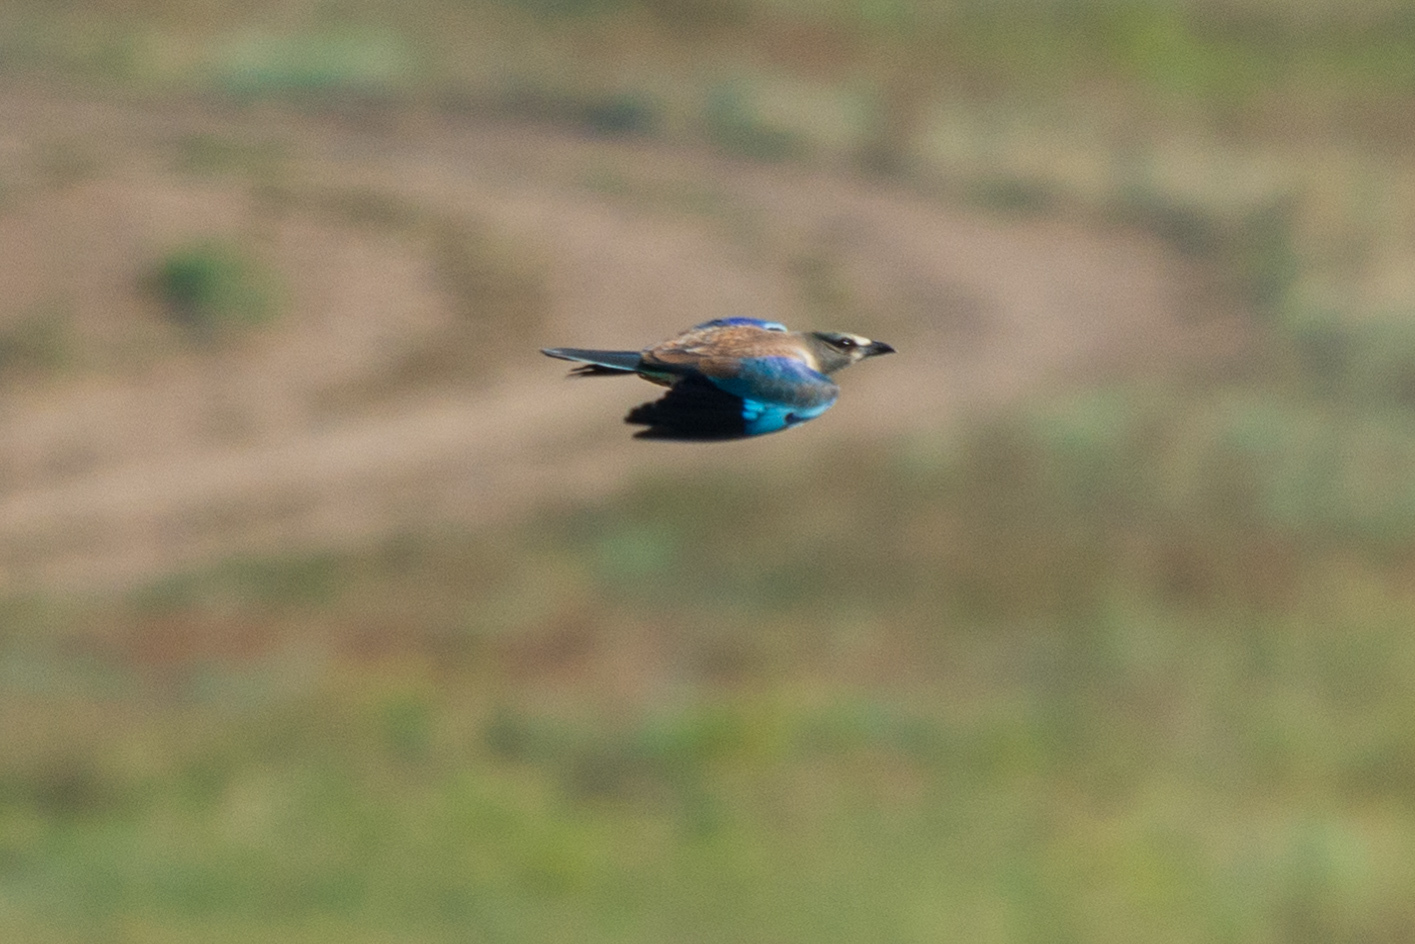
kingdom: Animalia
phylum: Chordata
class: Aves
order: Coraciiformes
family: Coraciidae
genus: Coracias
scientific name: Coracias garrulus
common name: European roller
